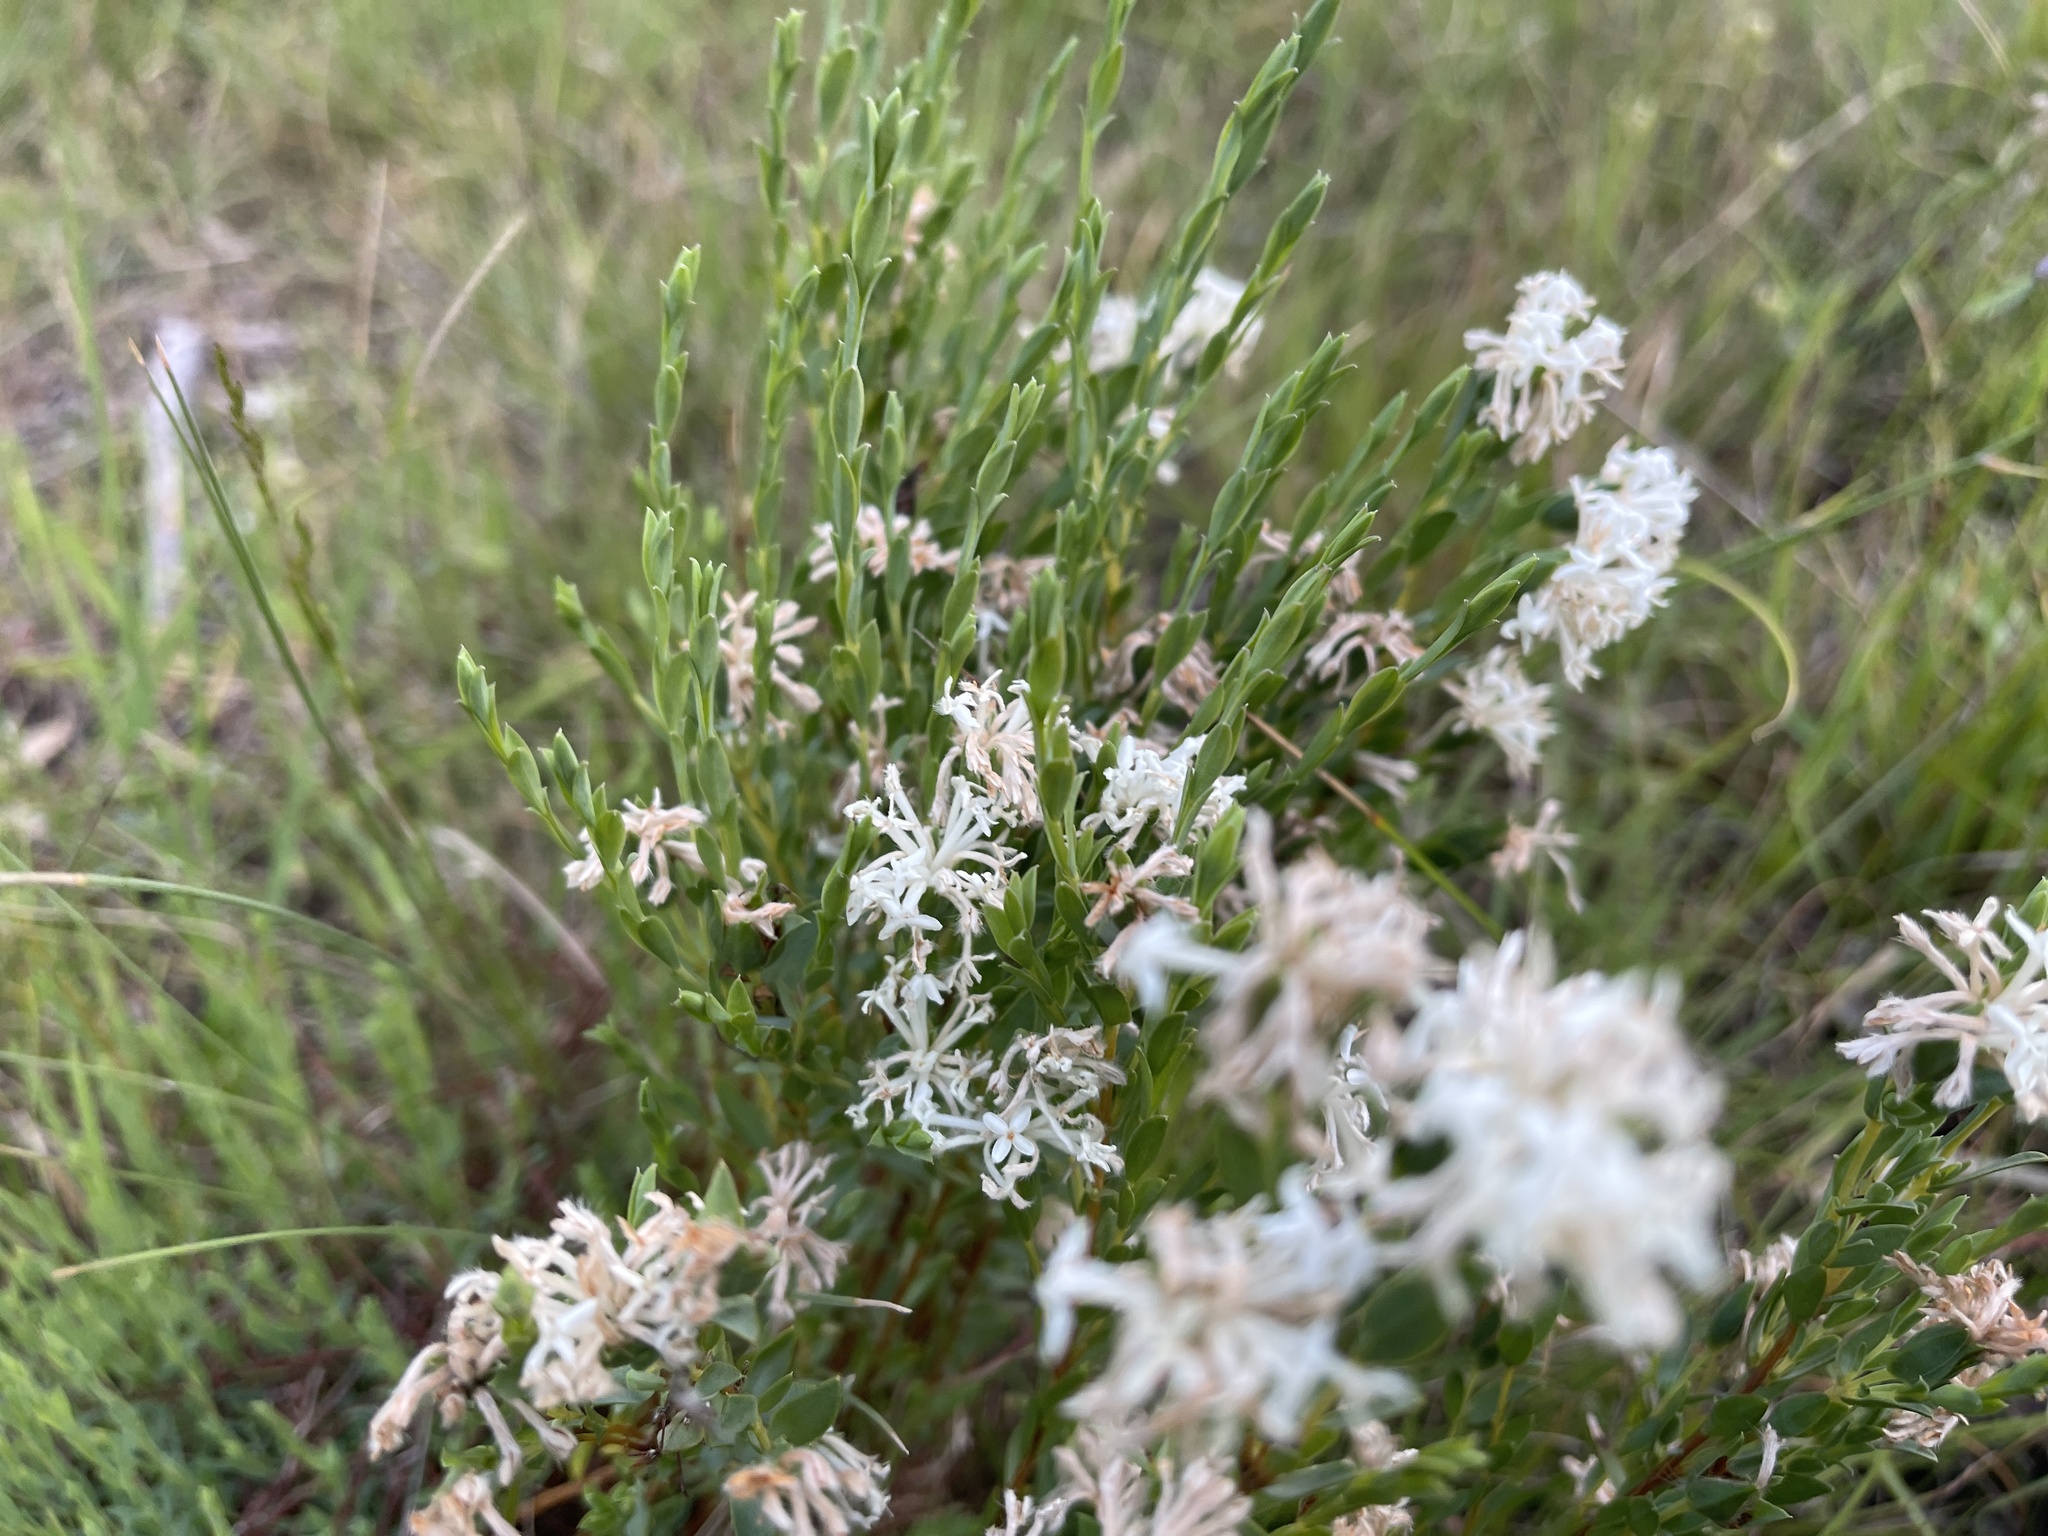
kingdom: Plantae
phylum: Tracheophyta
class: Magnoliopsida
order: Malvales
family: Thymelaeaceae
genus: Pimelea
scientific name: Pimelea glauca
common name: Smooth riceflower
